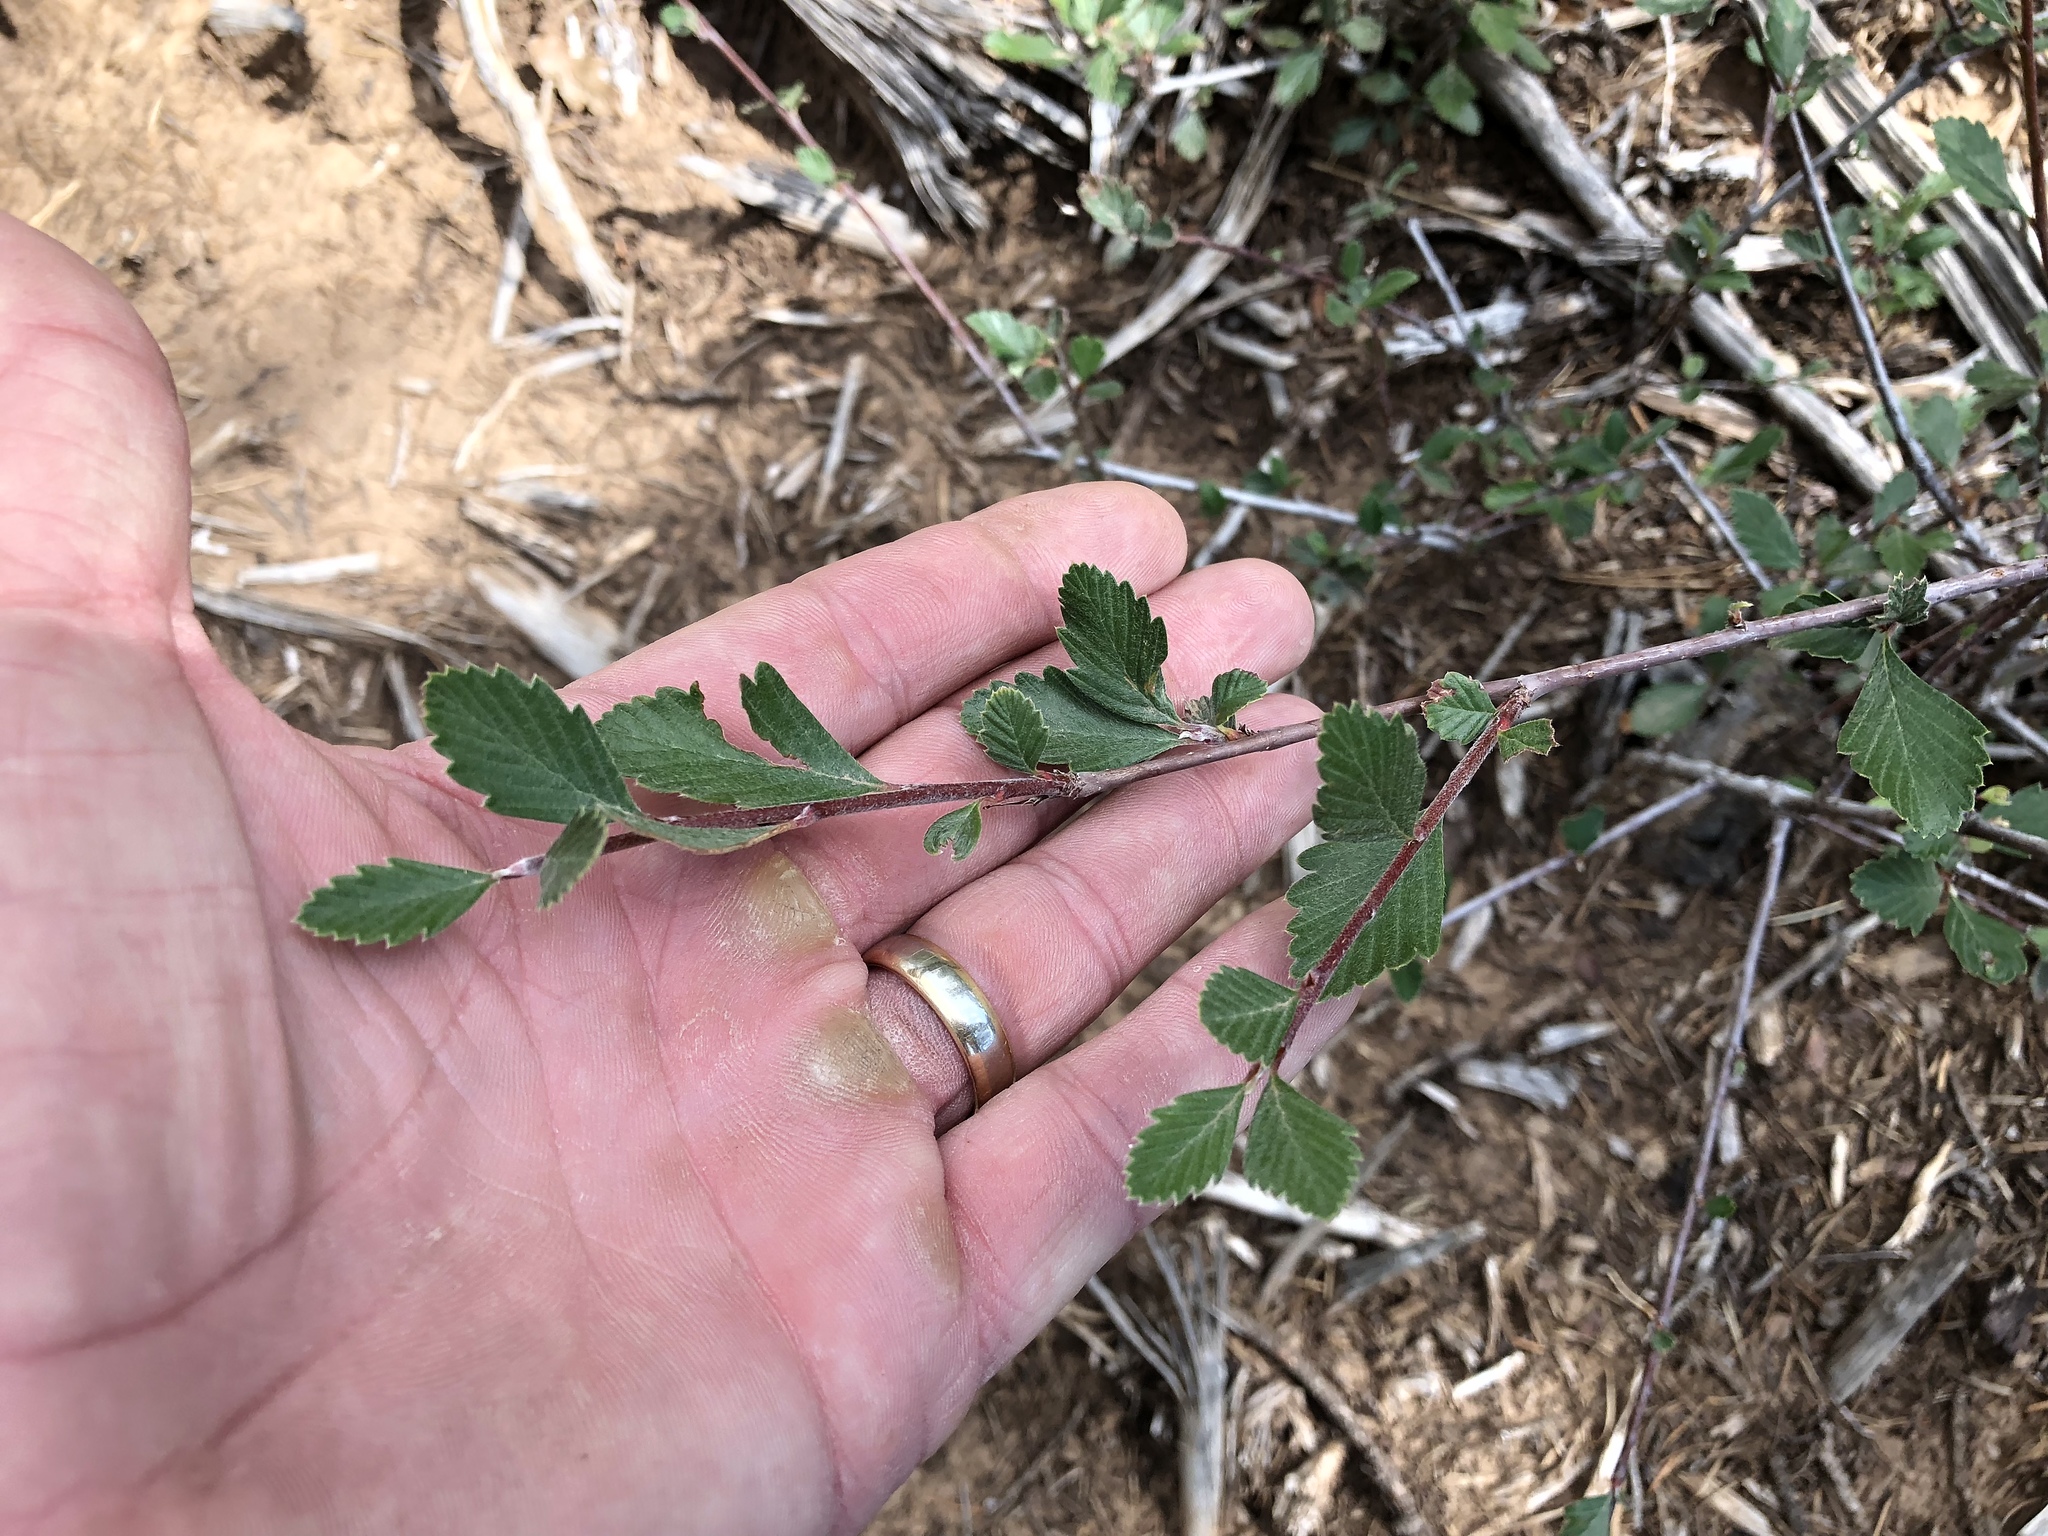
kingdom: Plantae
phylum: Tracheophyta
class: Magnoliopsida
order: Rosales
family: Rosaceae
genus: Cercocarpus
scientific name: Cercocarpus montanus
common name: Alder-leaf cercocarpus
